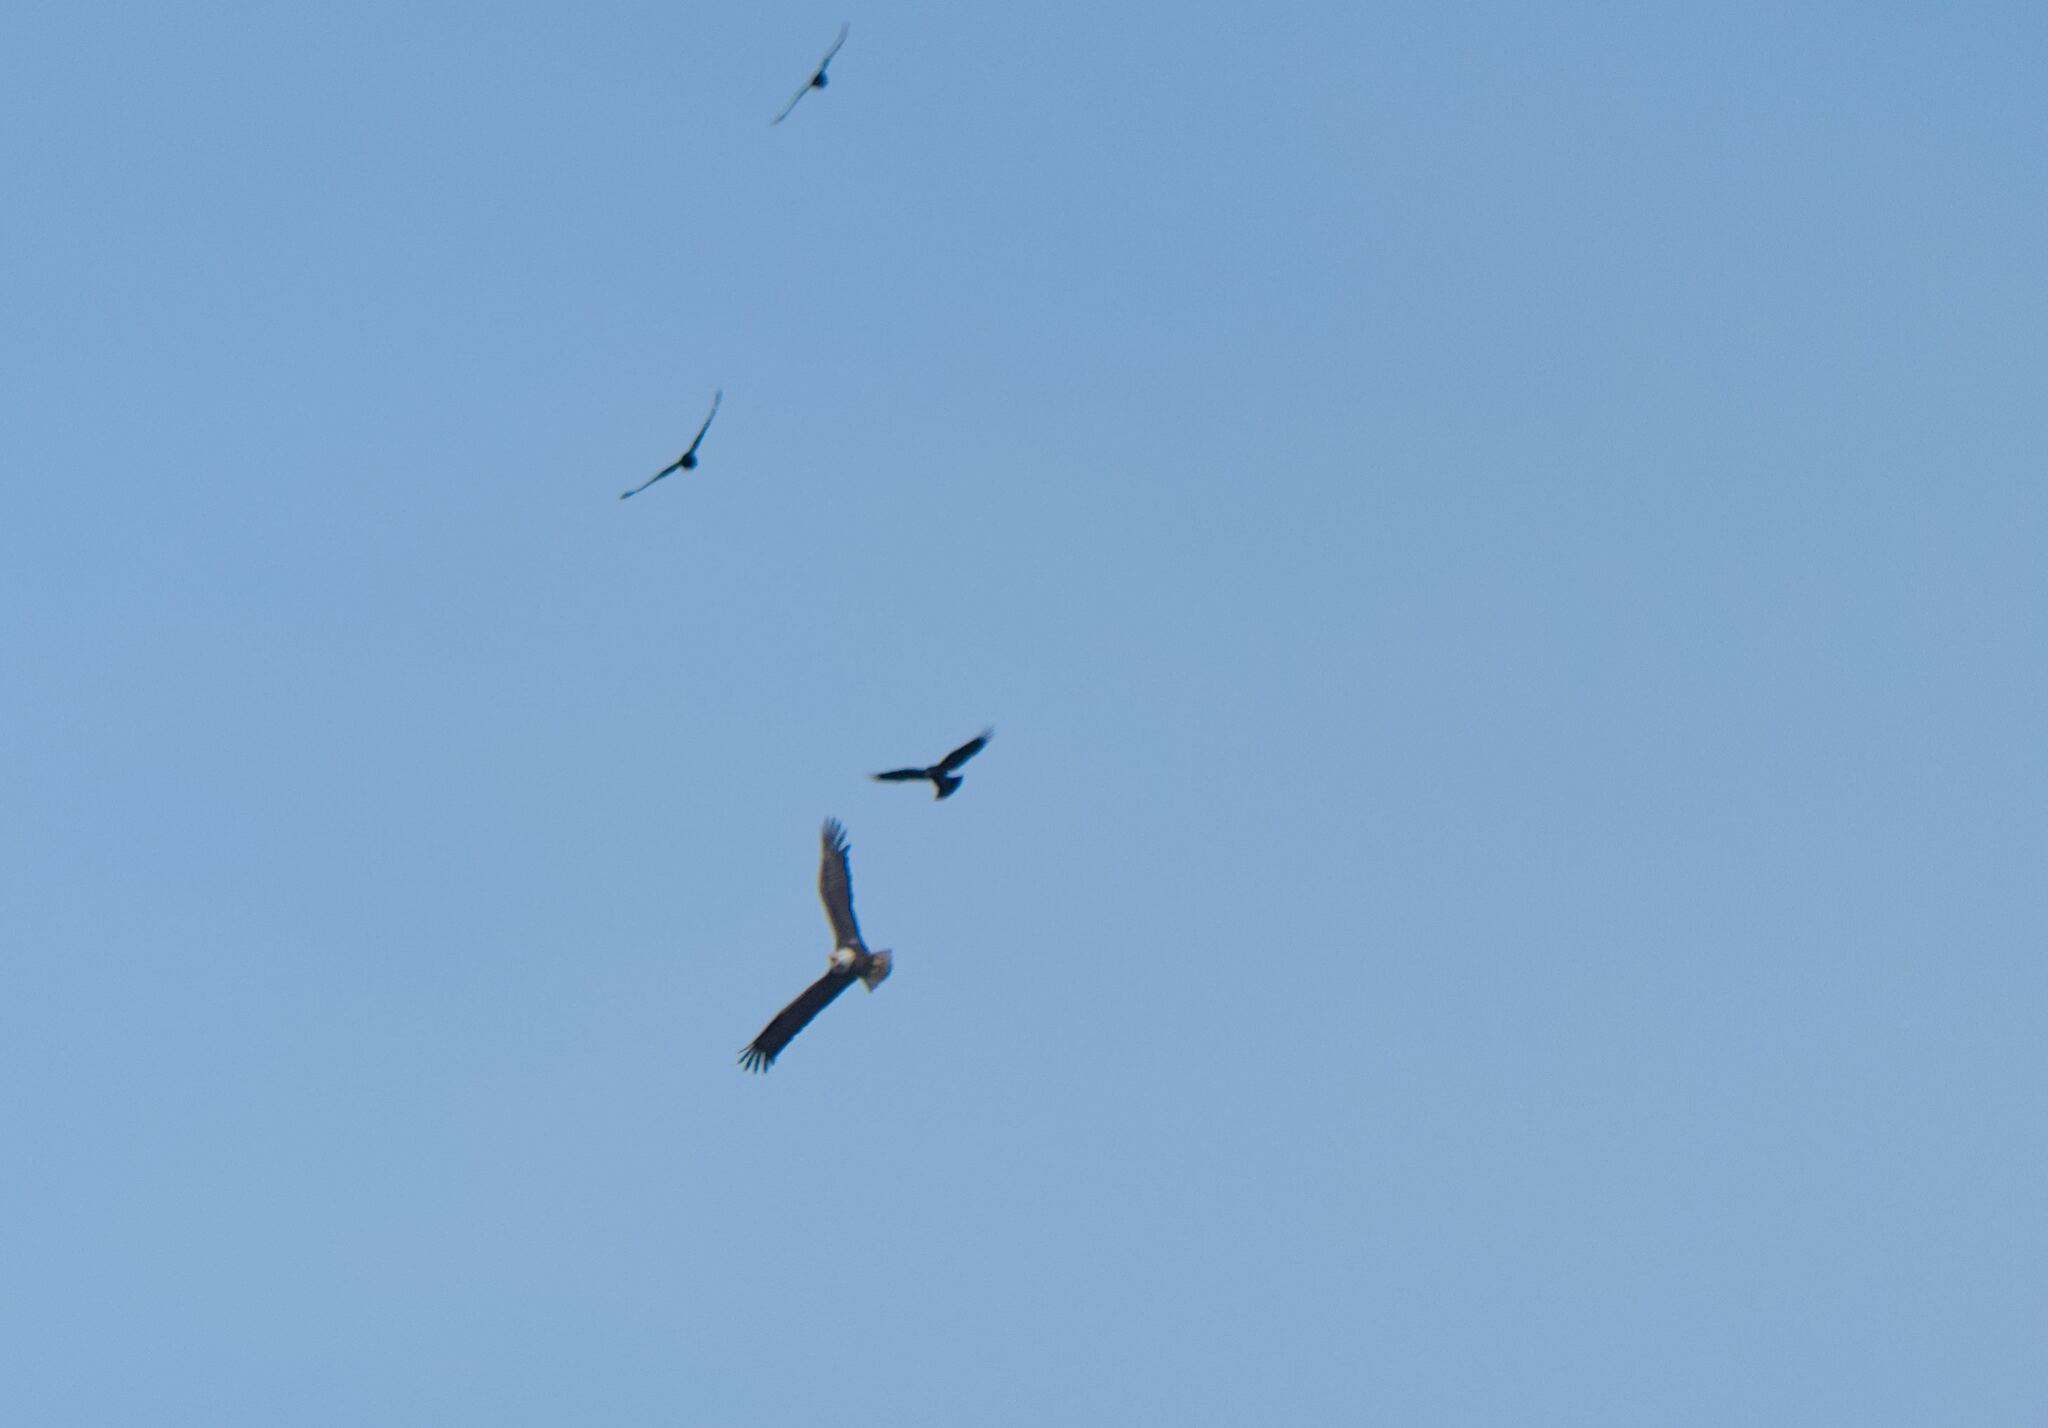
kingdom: Animalia
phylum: Chordata
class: Aves
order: Accipitriformes
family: Accipitridae
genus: Haliaeetus
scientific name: Haliaeetus leucocephalus
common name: Bald eagle
